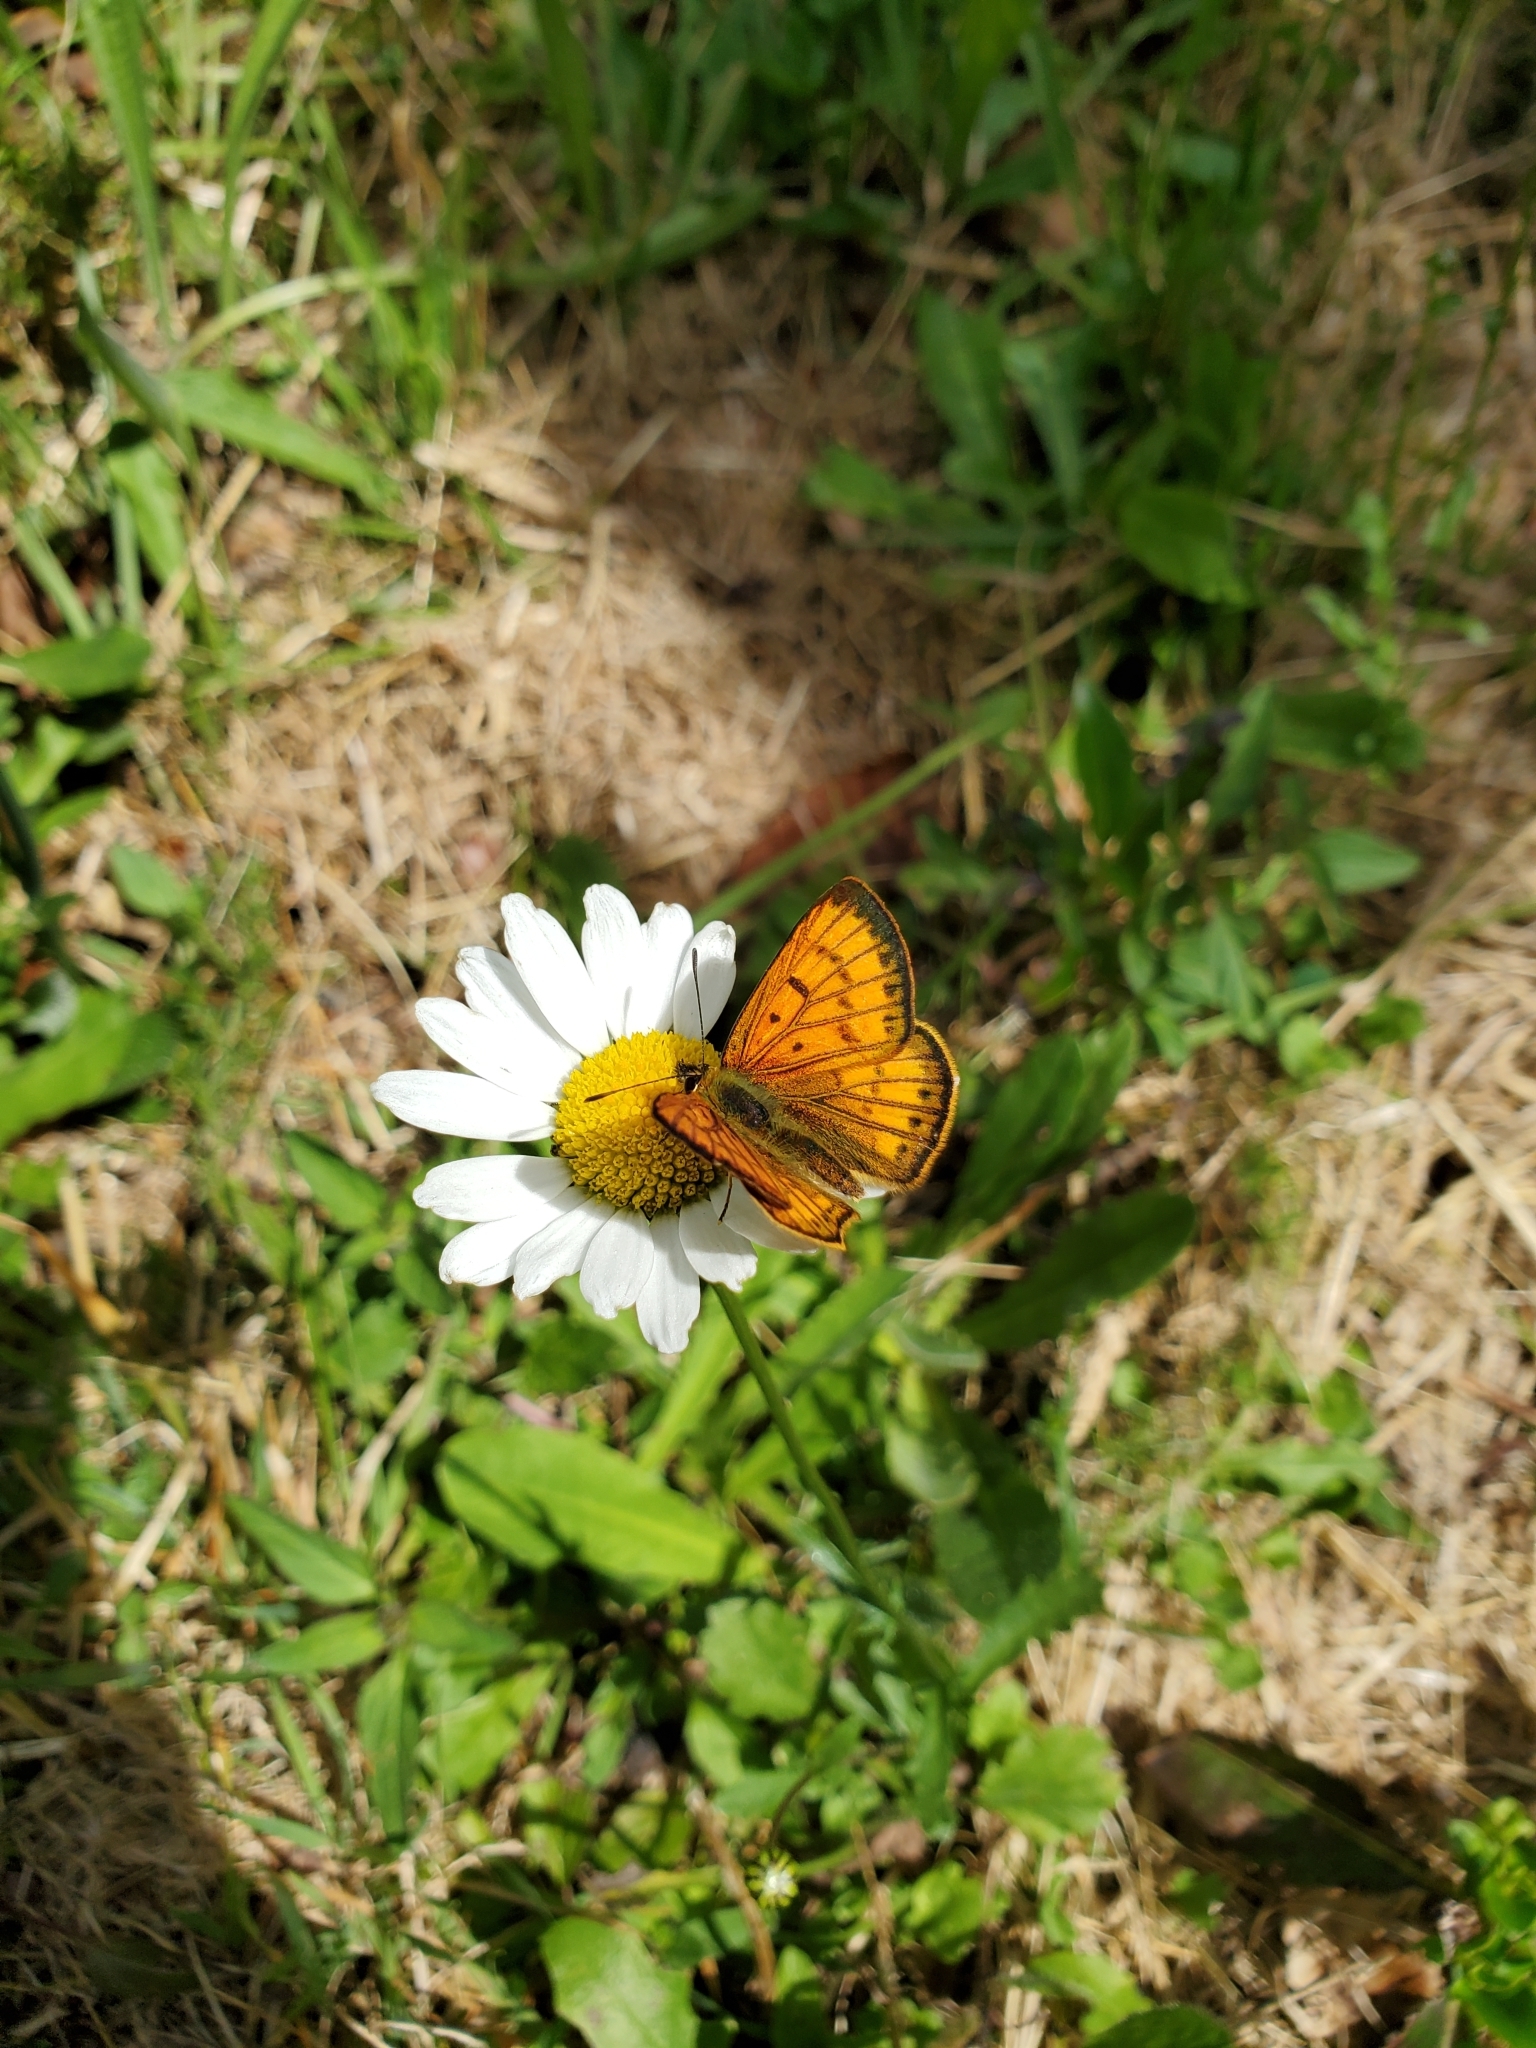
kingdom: Animalia
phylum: Arthropoda
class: Insecta
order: Lepidoptera
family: Lycaenidae
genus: Lycaena
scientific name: Lycaena salustius
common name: North island coastal copper
